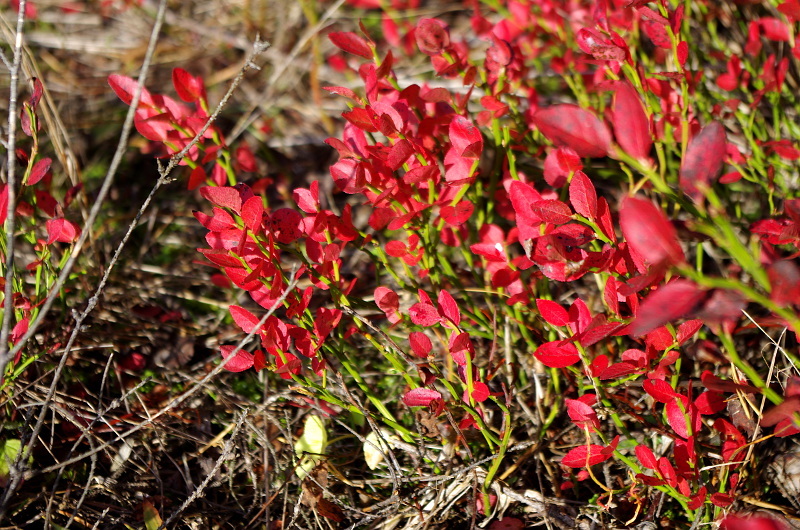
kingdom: Plantae
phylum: Tracheophyta
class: Magnoliopsida
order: Ericales
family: Ericaceae
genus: Vaccinium
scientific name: Vaccinium myrtillus
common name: Bilberry
